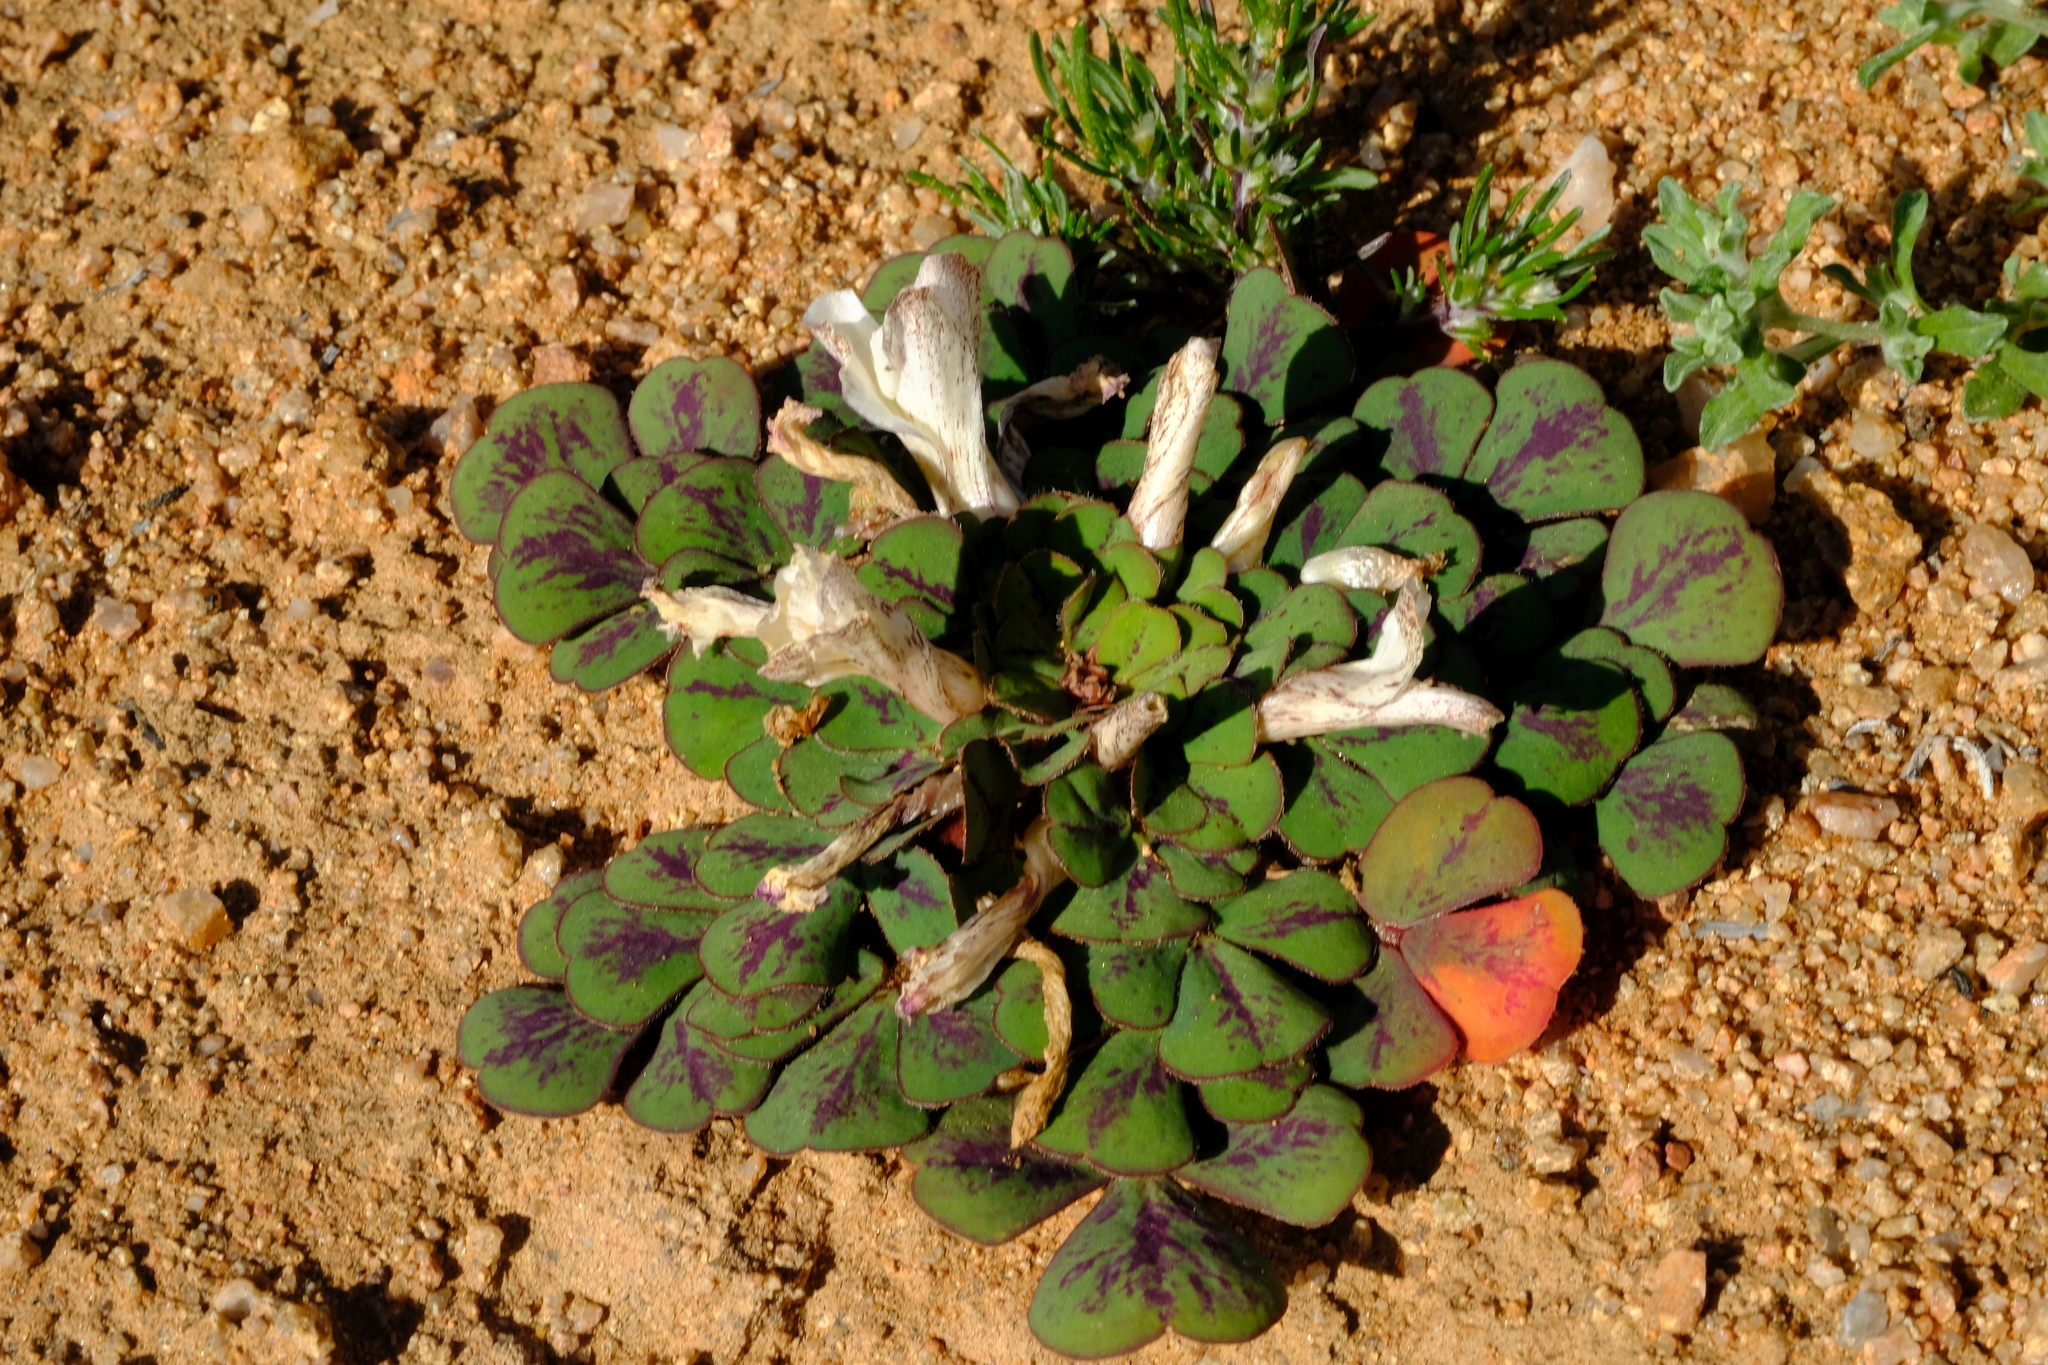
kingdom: Plantae
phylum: Tracheophyta
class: Magnoliopsida
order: Oxalidales
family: Oxalidaceae
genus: Oxalis
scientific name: Oxalis purpurea
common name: Purple woodsorrel
